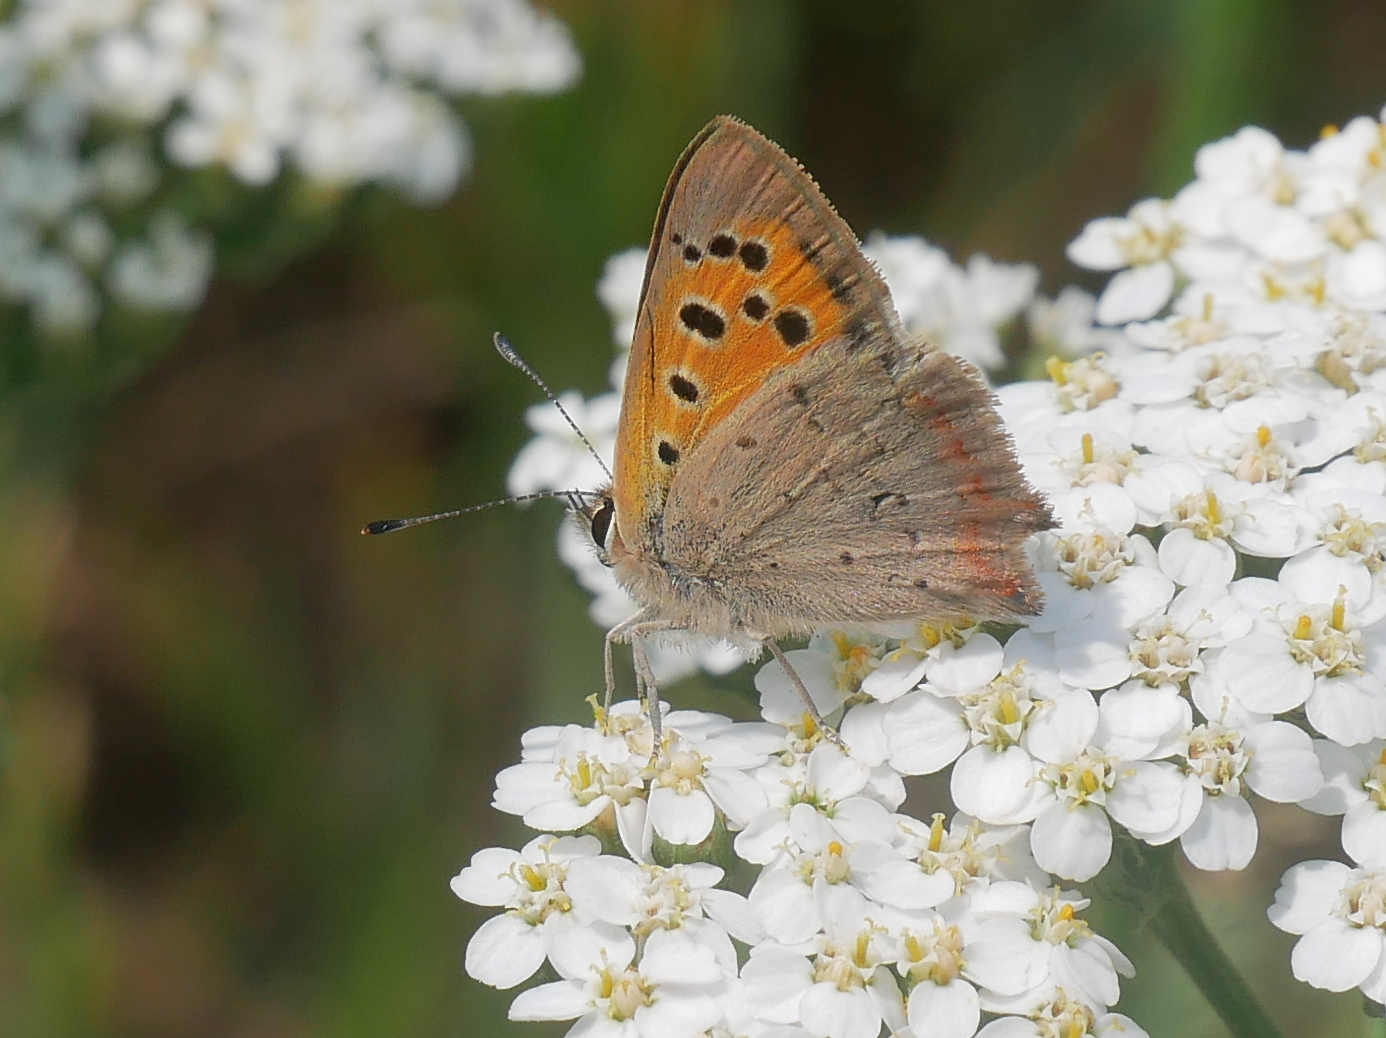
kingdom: Animalia
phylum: Arthropoda
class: Insecta
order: Lepidoptera
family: Lycaenidae
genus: Lycaena
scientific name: Lycaena phlaeas
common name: Small copper
